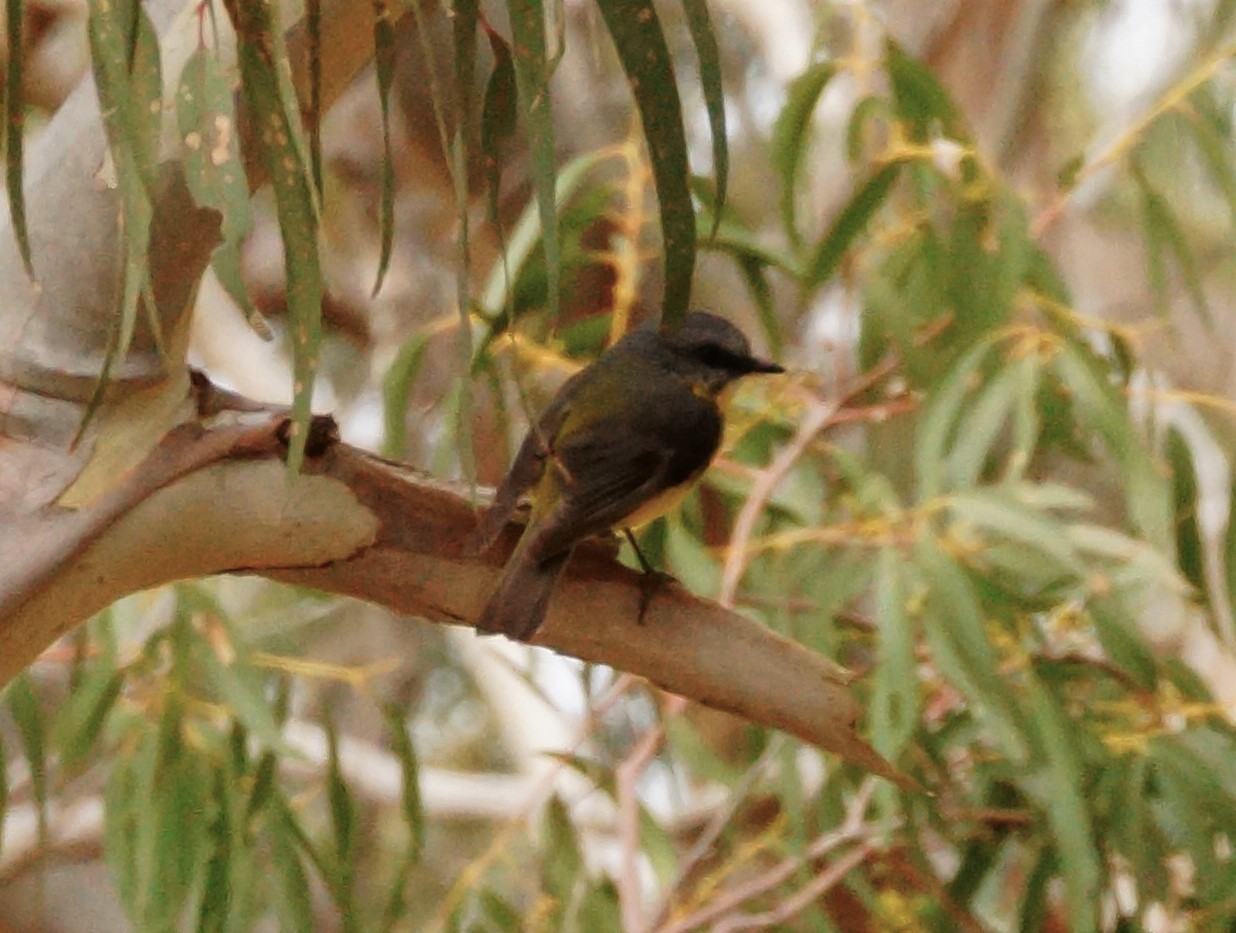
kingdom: Animalia
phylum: Chordata
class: Aves
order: Passeriformes
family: Petroicidae
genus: Eopsaltria
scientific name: Eopsaltria australis
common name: Eastern yellow robin
